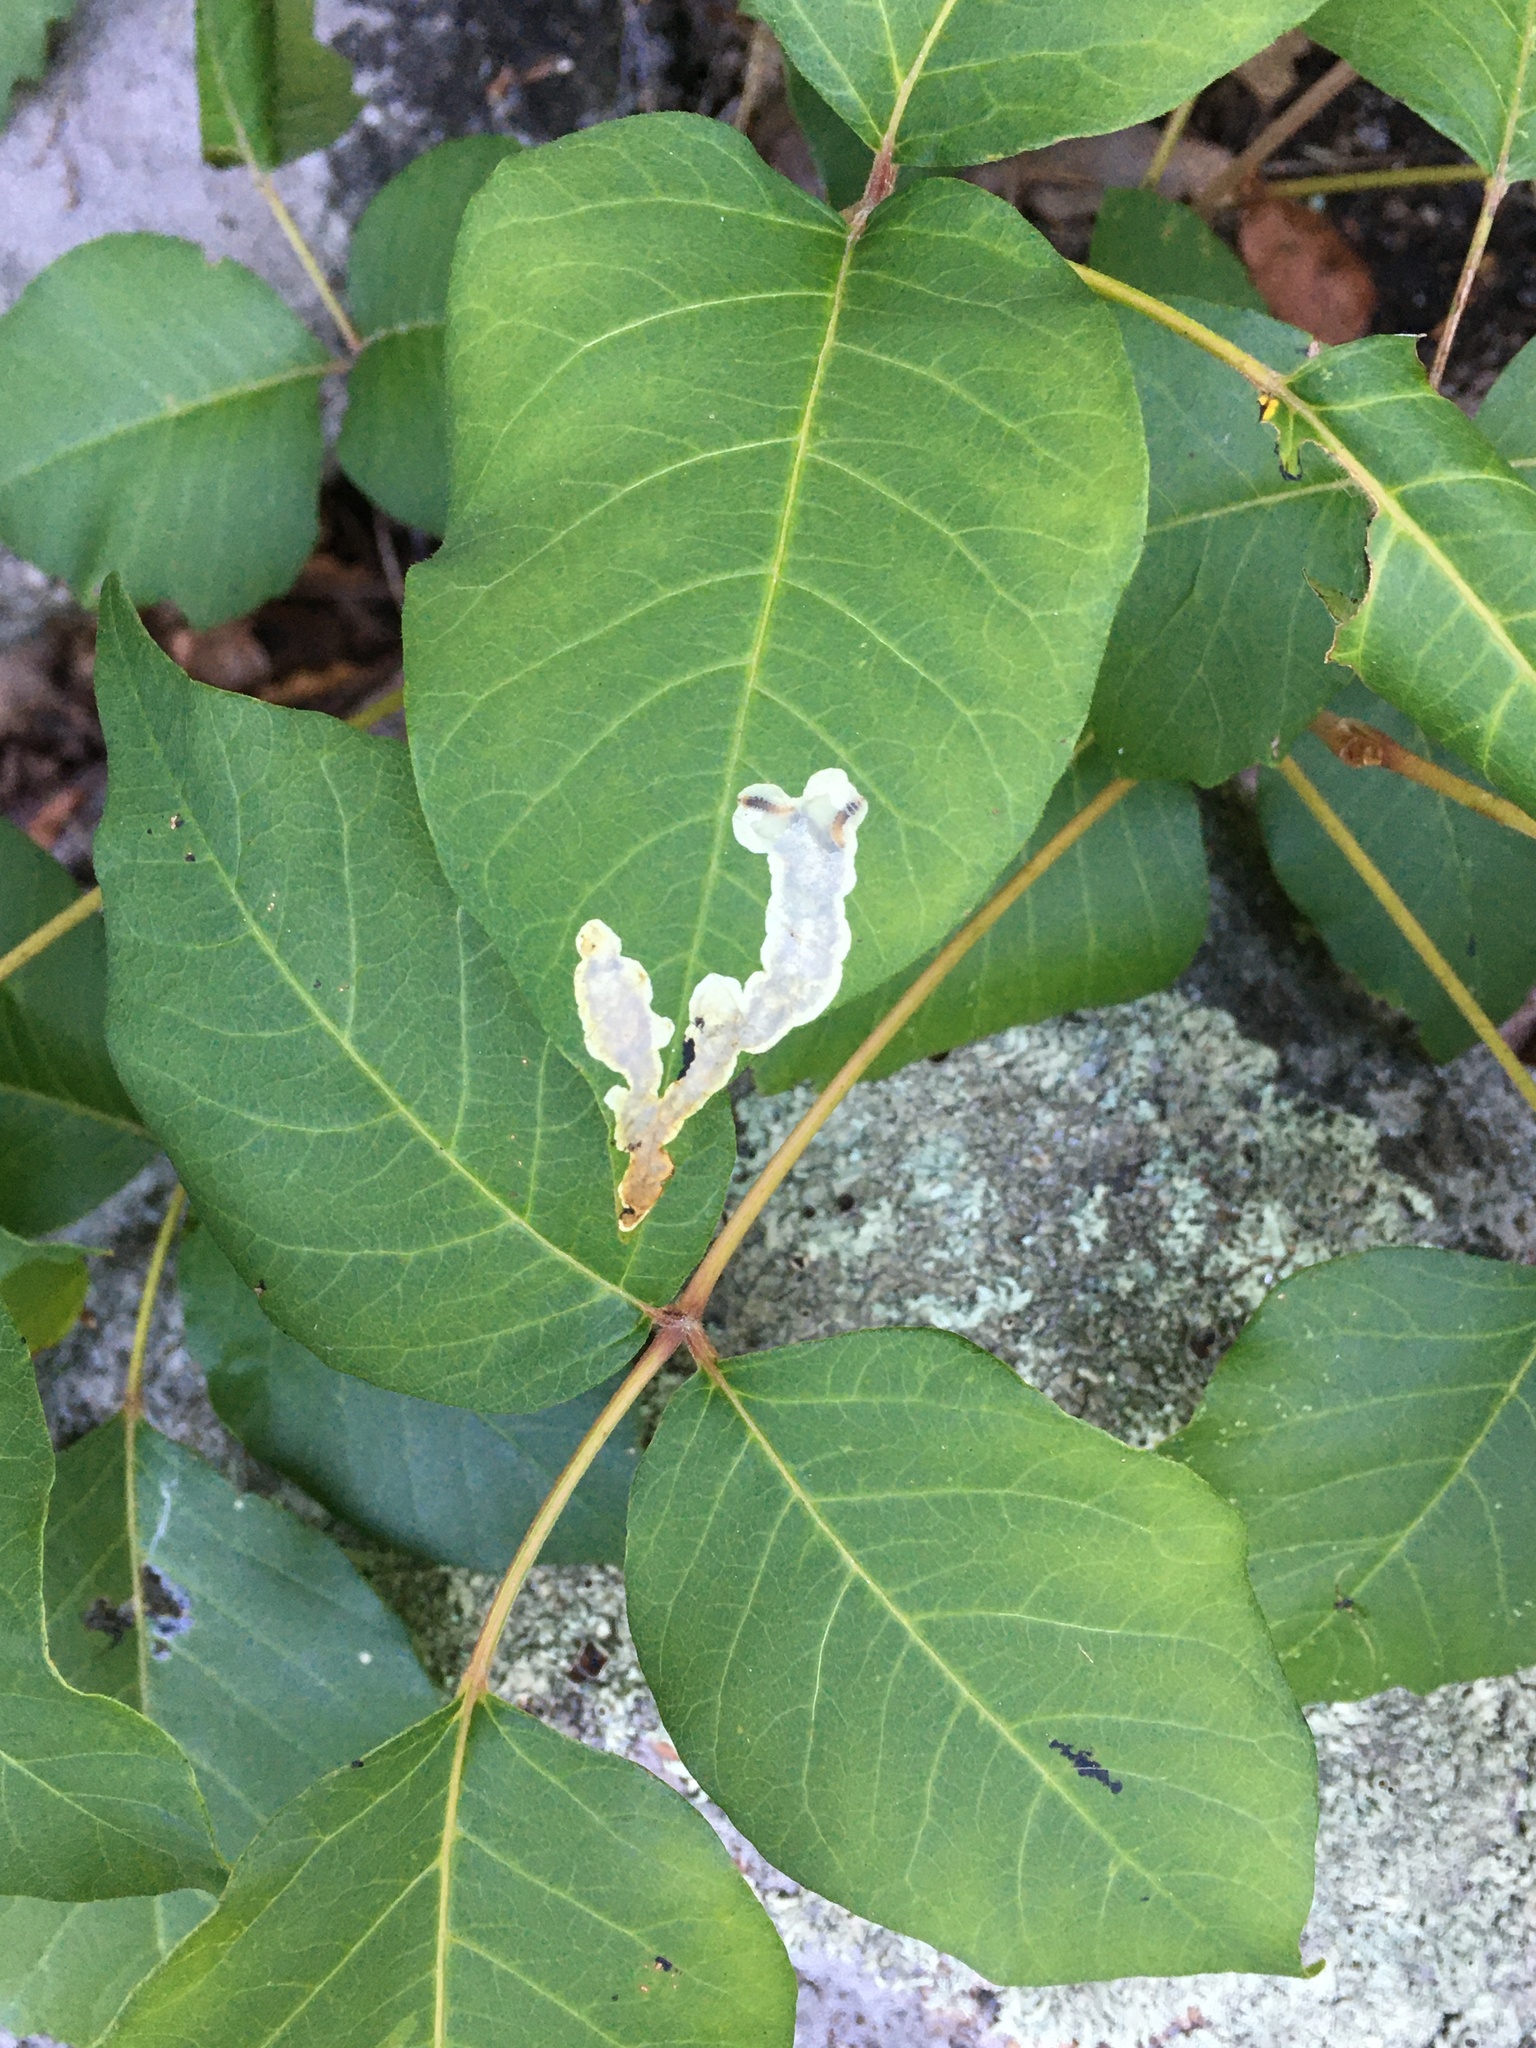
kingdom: Animalia
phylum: Arthropoda
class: Insecta
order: Lepidoptera
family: Gracillariidae
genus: Cameraria
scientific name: Cameraria guttifinitella
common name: Poison ivy leaf-miner moth
